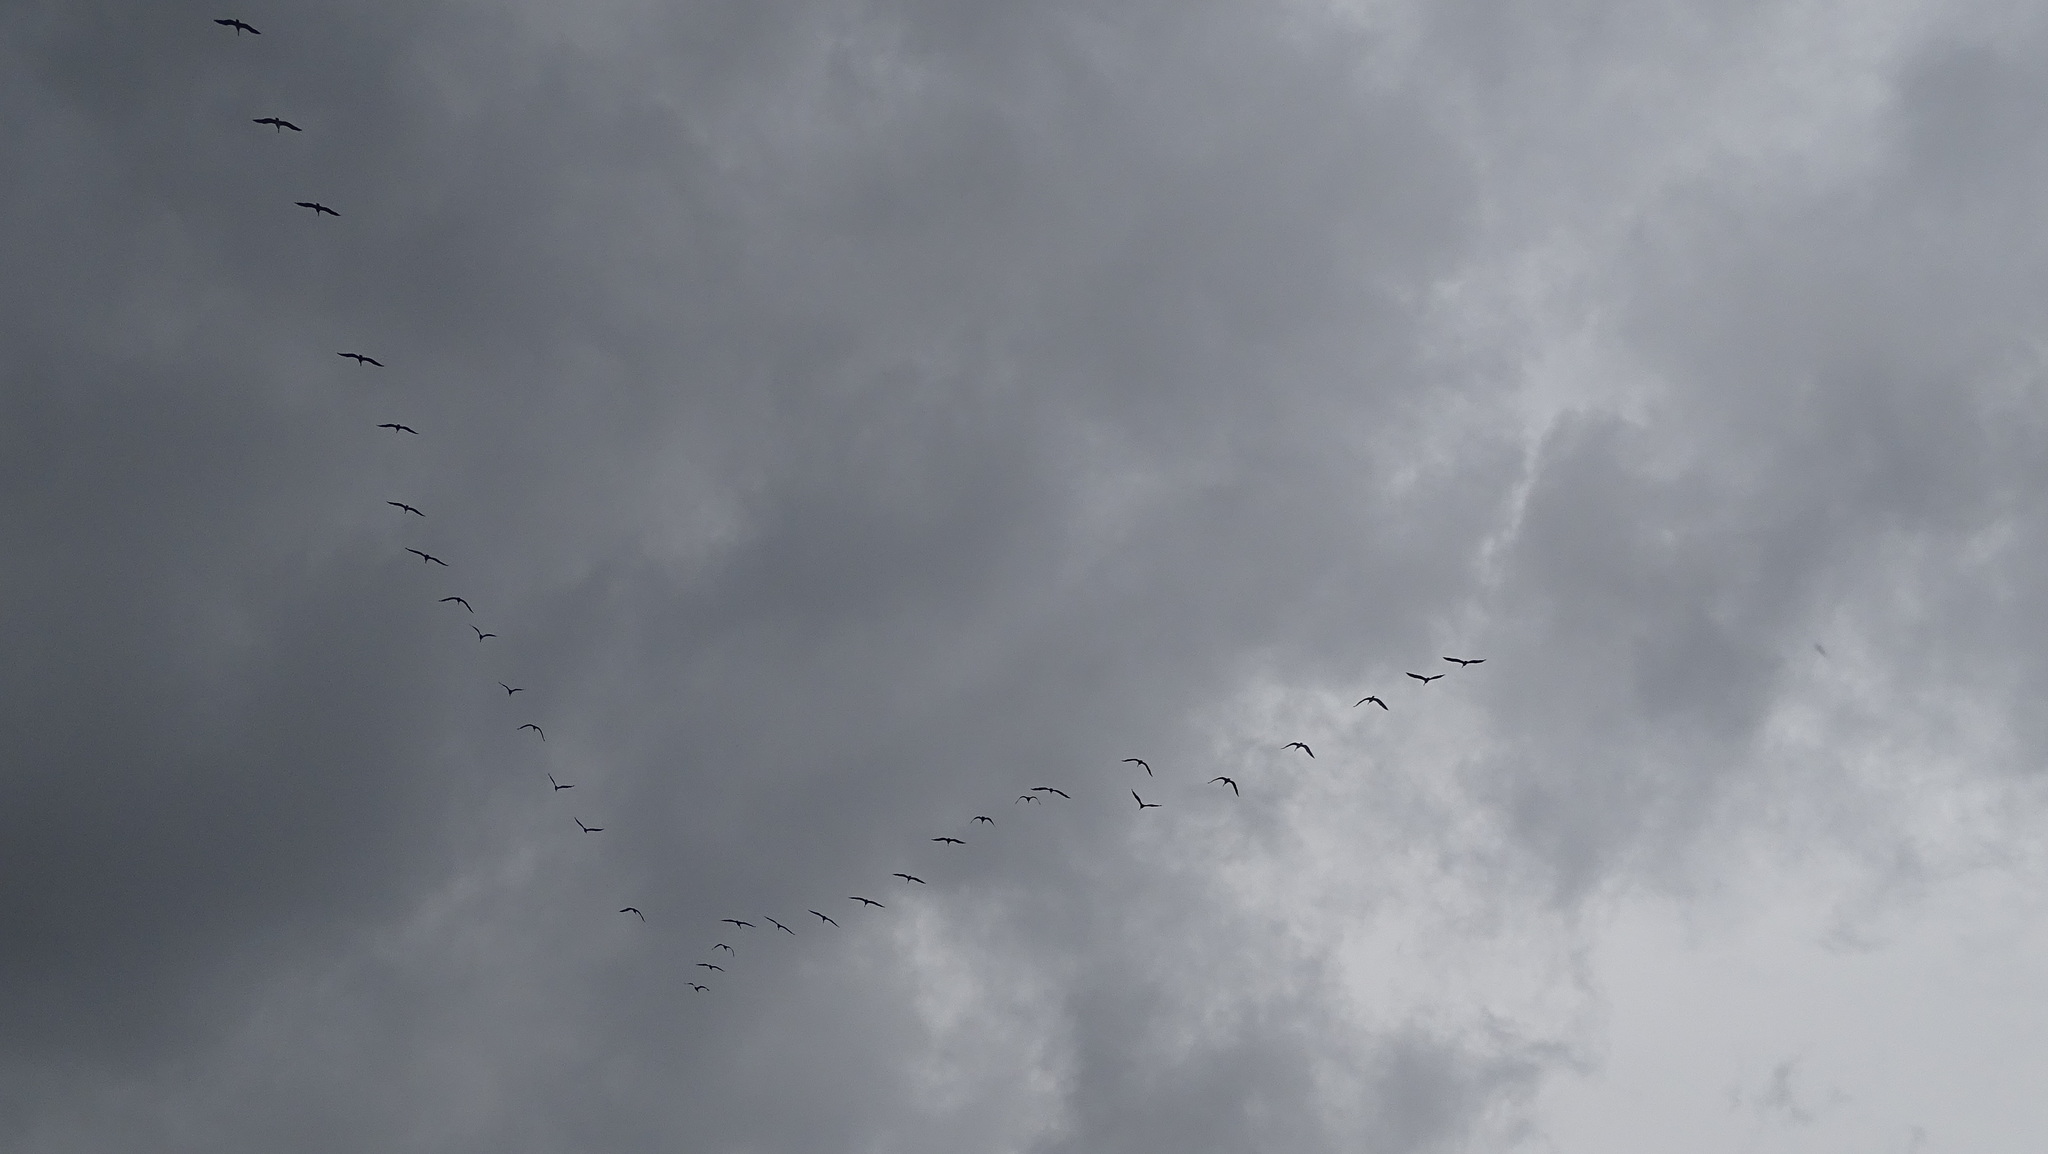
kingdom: Animalia
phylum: Chordata
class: Aves
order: Pelecaniformes
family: Pelecanidae
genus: Pelecanus
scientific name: Pelecanus occidentalis
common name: Brown pelican
